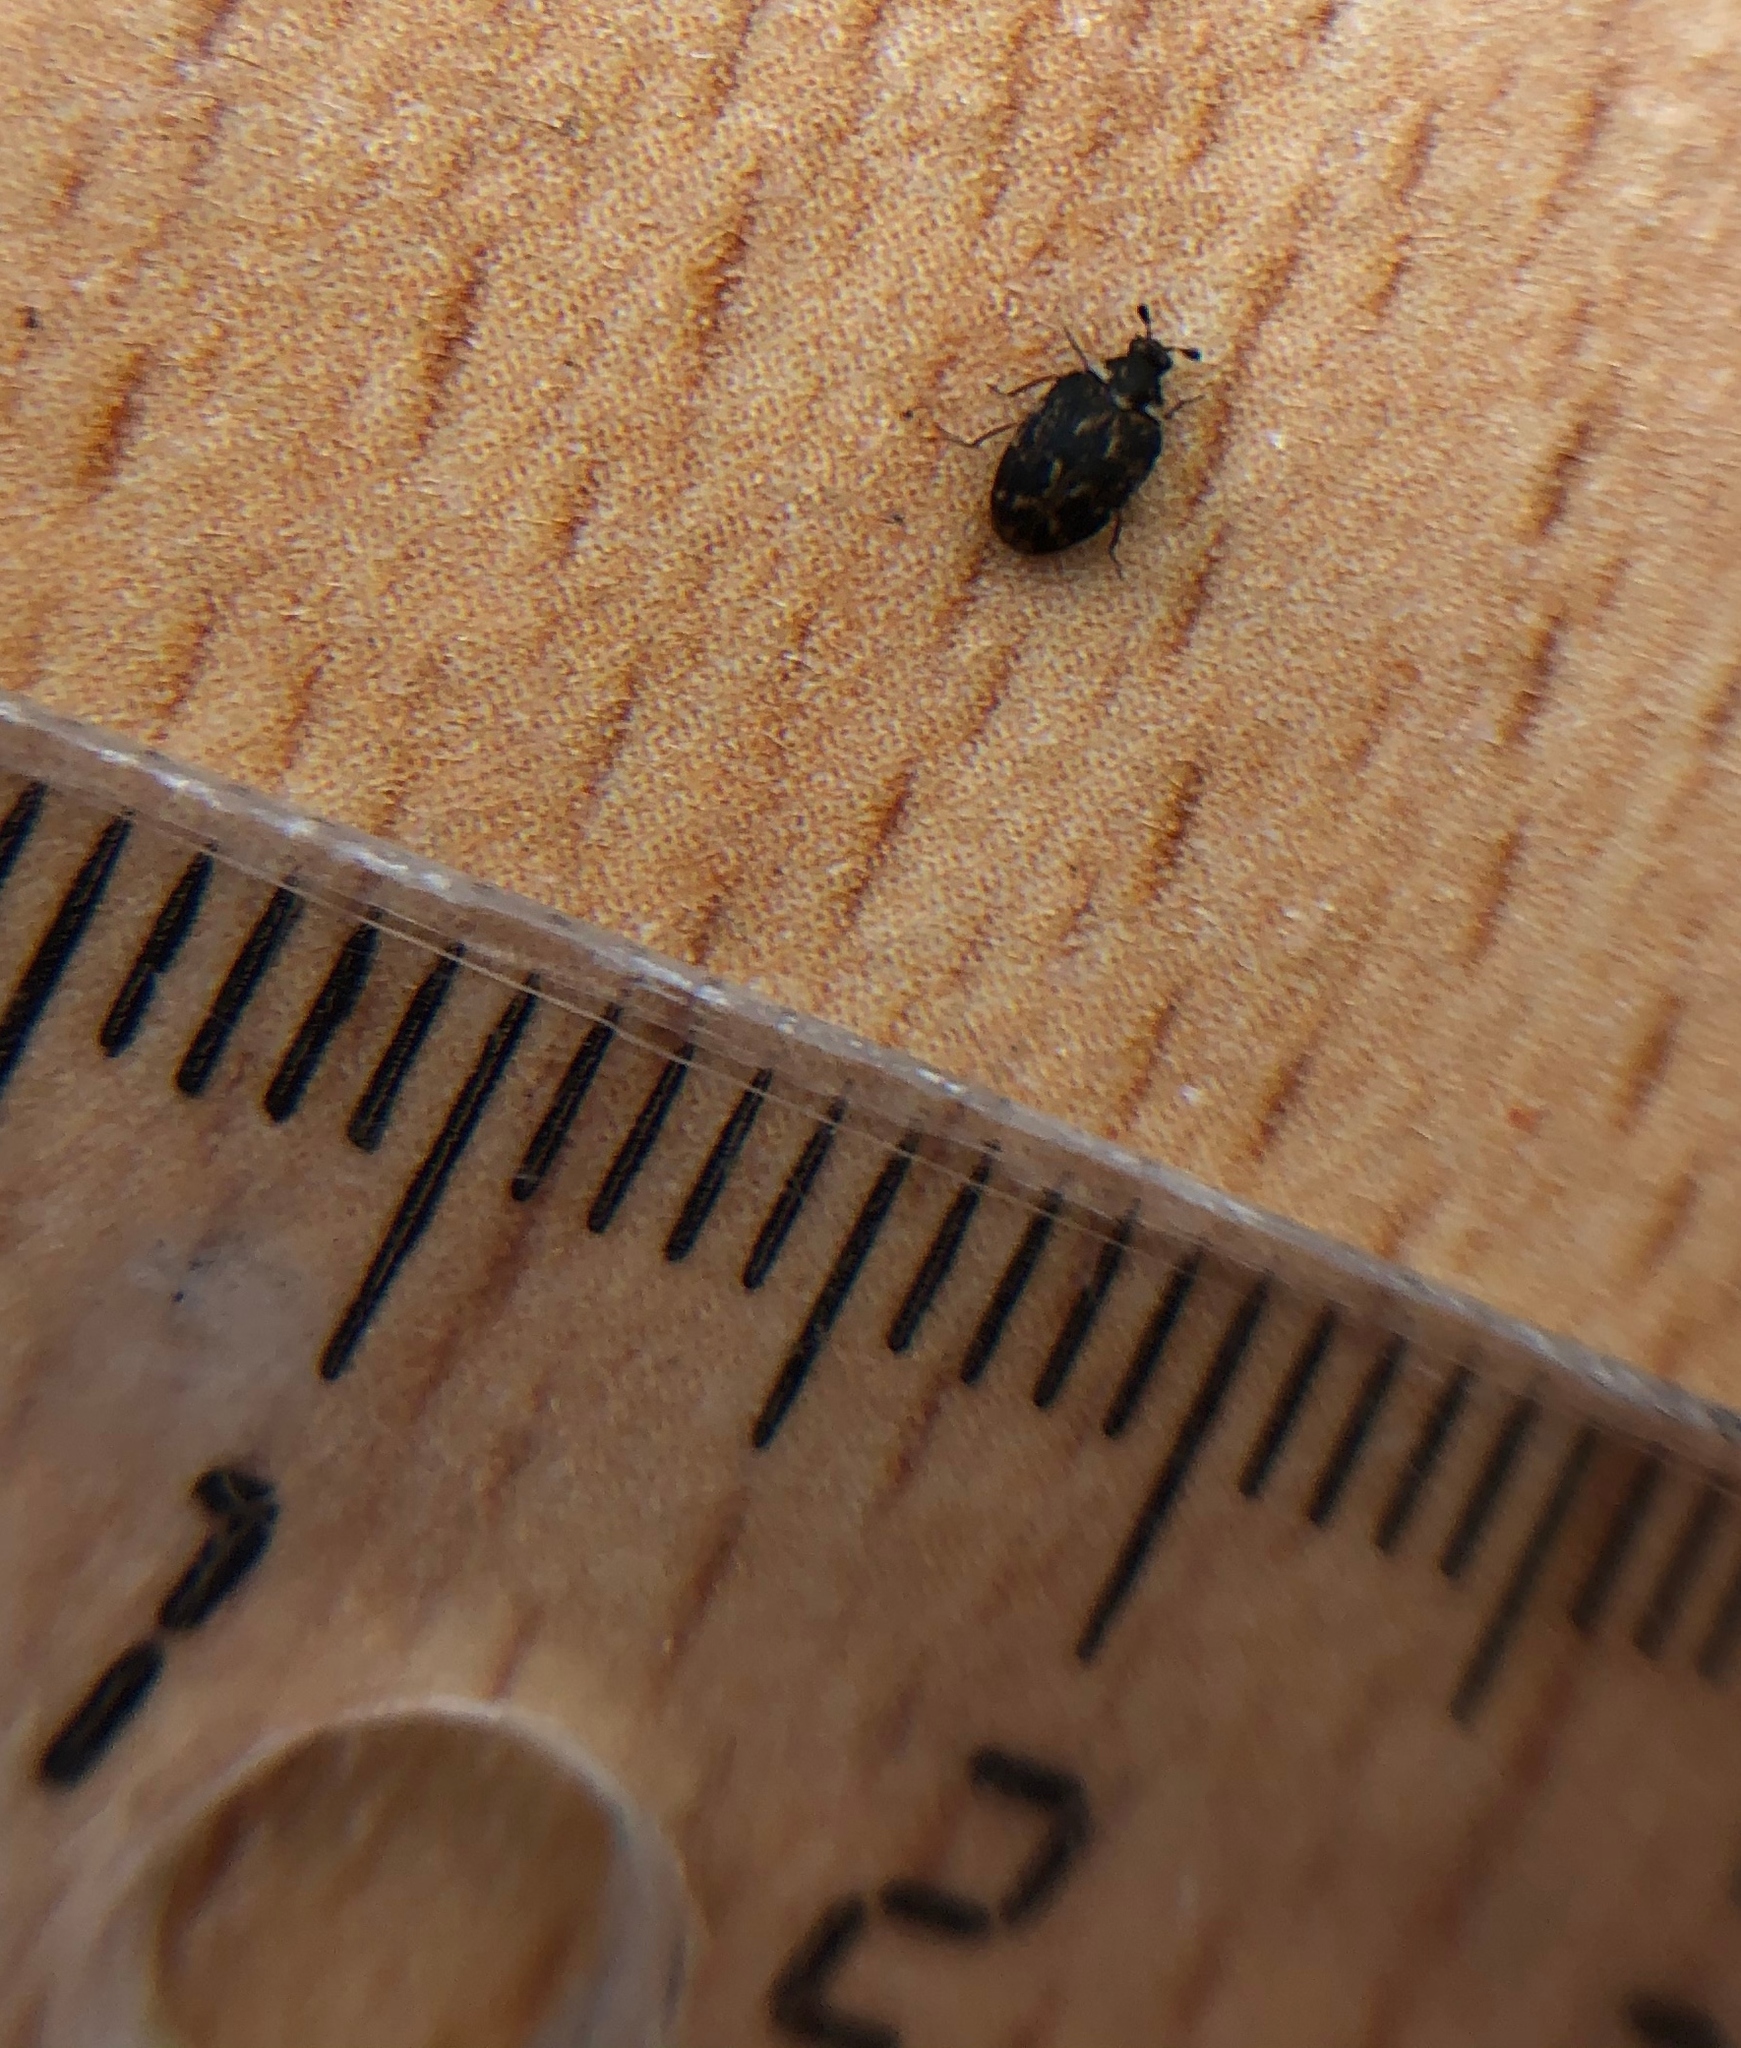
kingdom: Animalia
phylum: Arthropoda
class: Insecta
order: Coleoptera
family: Dermestidae
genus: Anthrenus
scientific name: Anthrenus museorum
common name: Museum beetle
